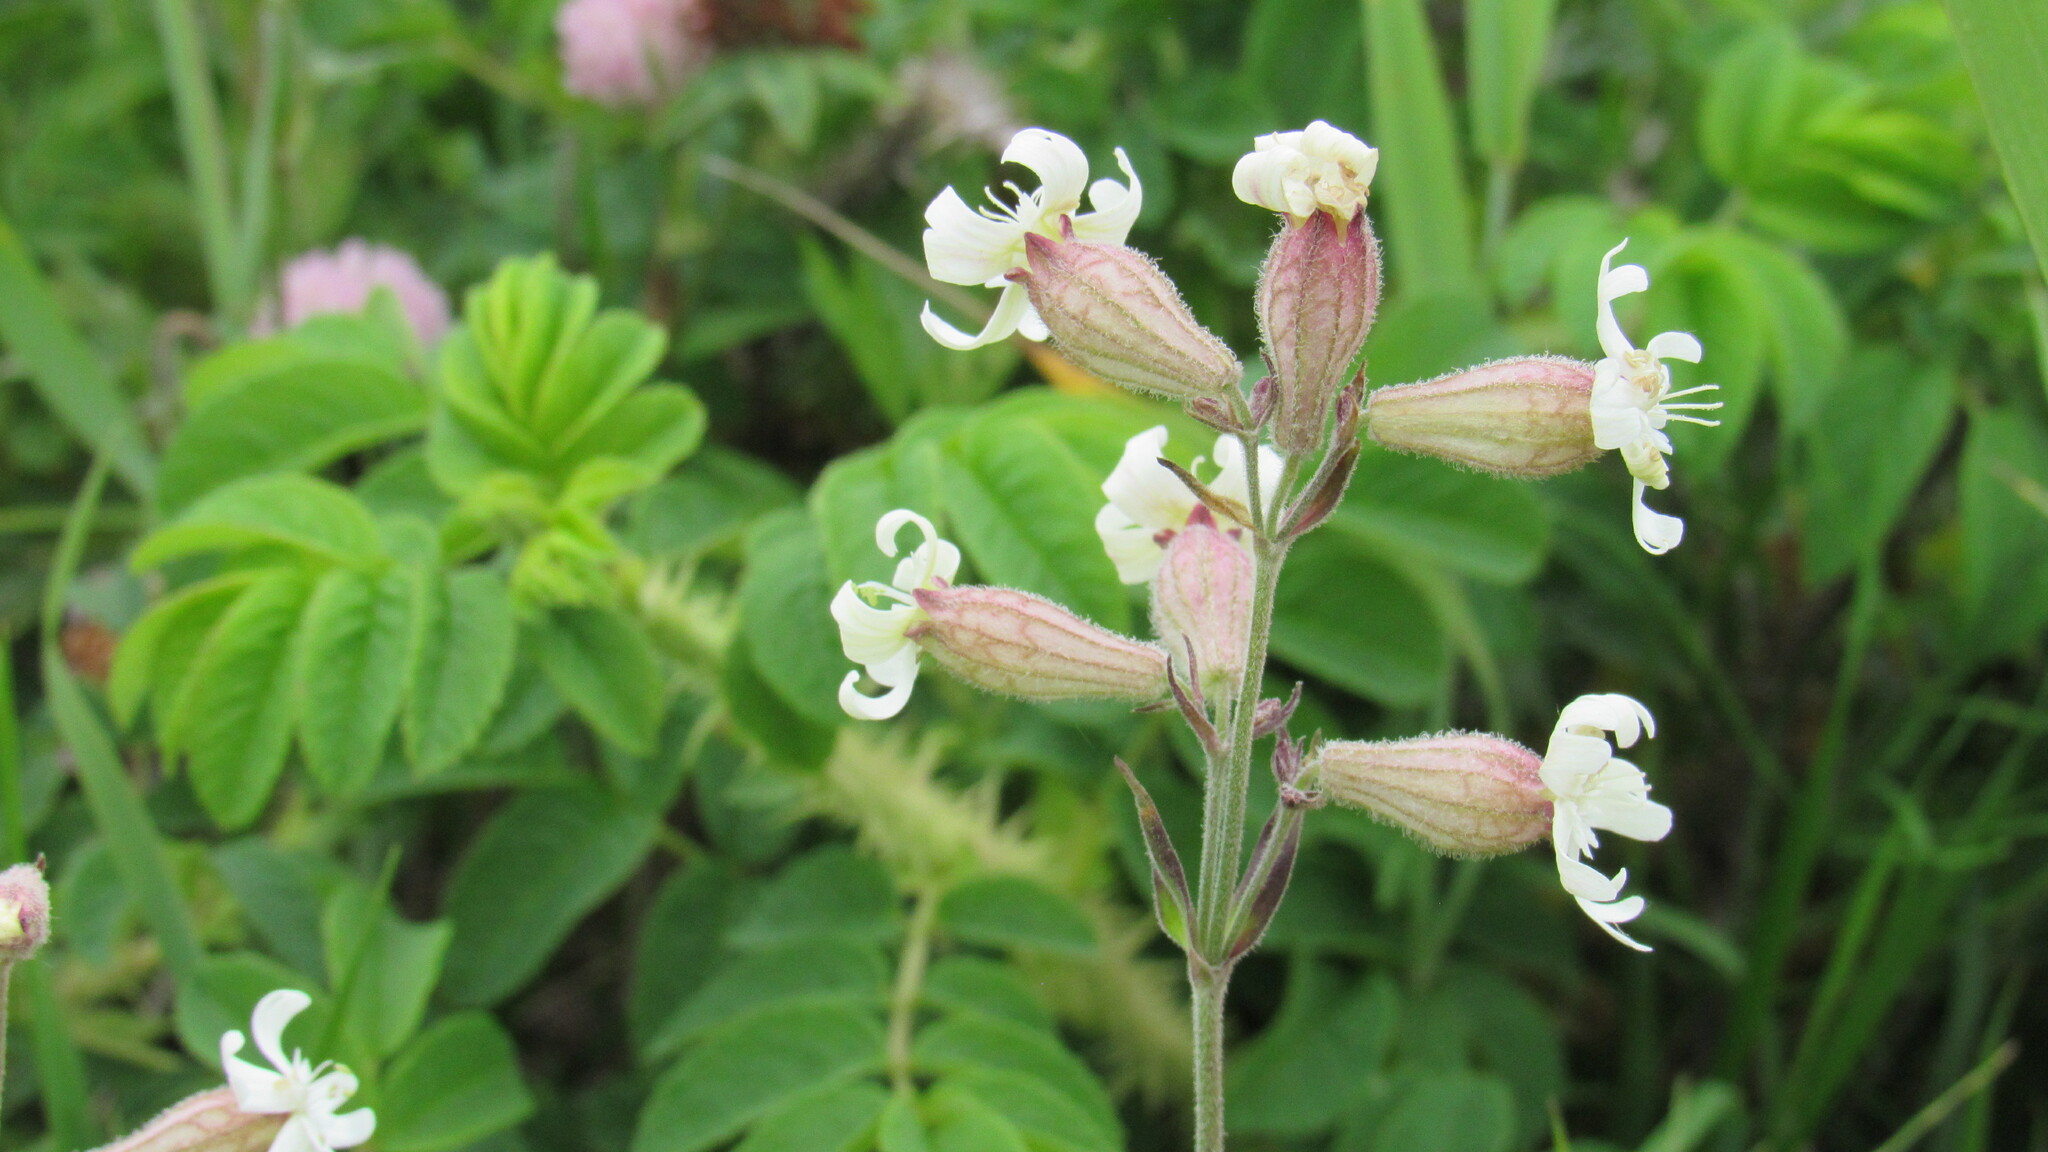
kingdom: Plantae
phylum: Tracheophyta
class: Magnoliopsida
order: Caryophyllales
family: Caryophyllaceae
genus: Silene
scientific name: Silene amoena
